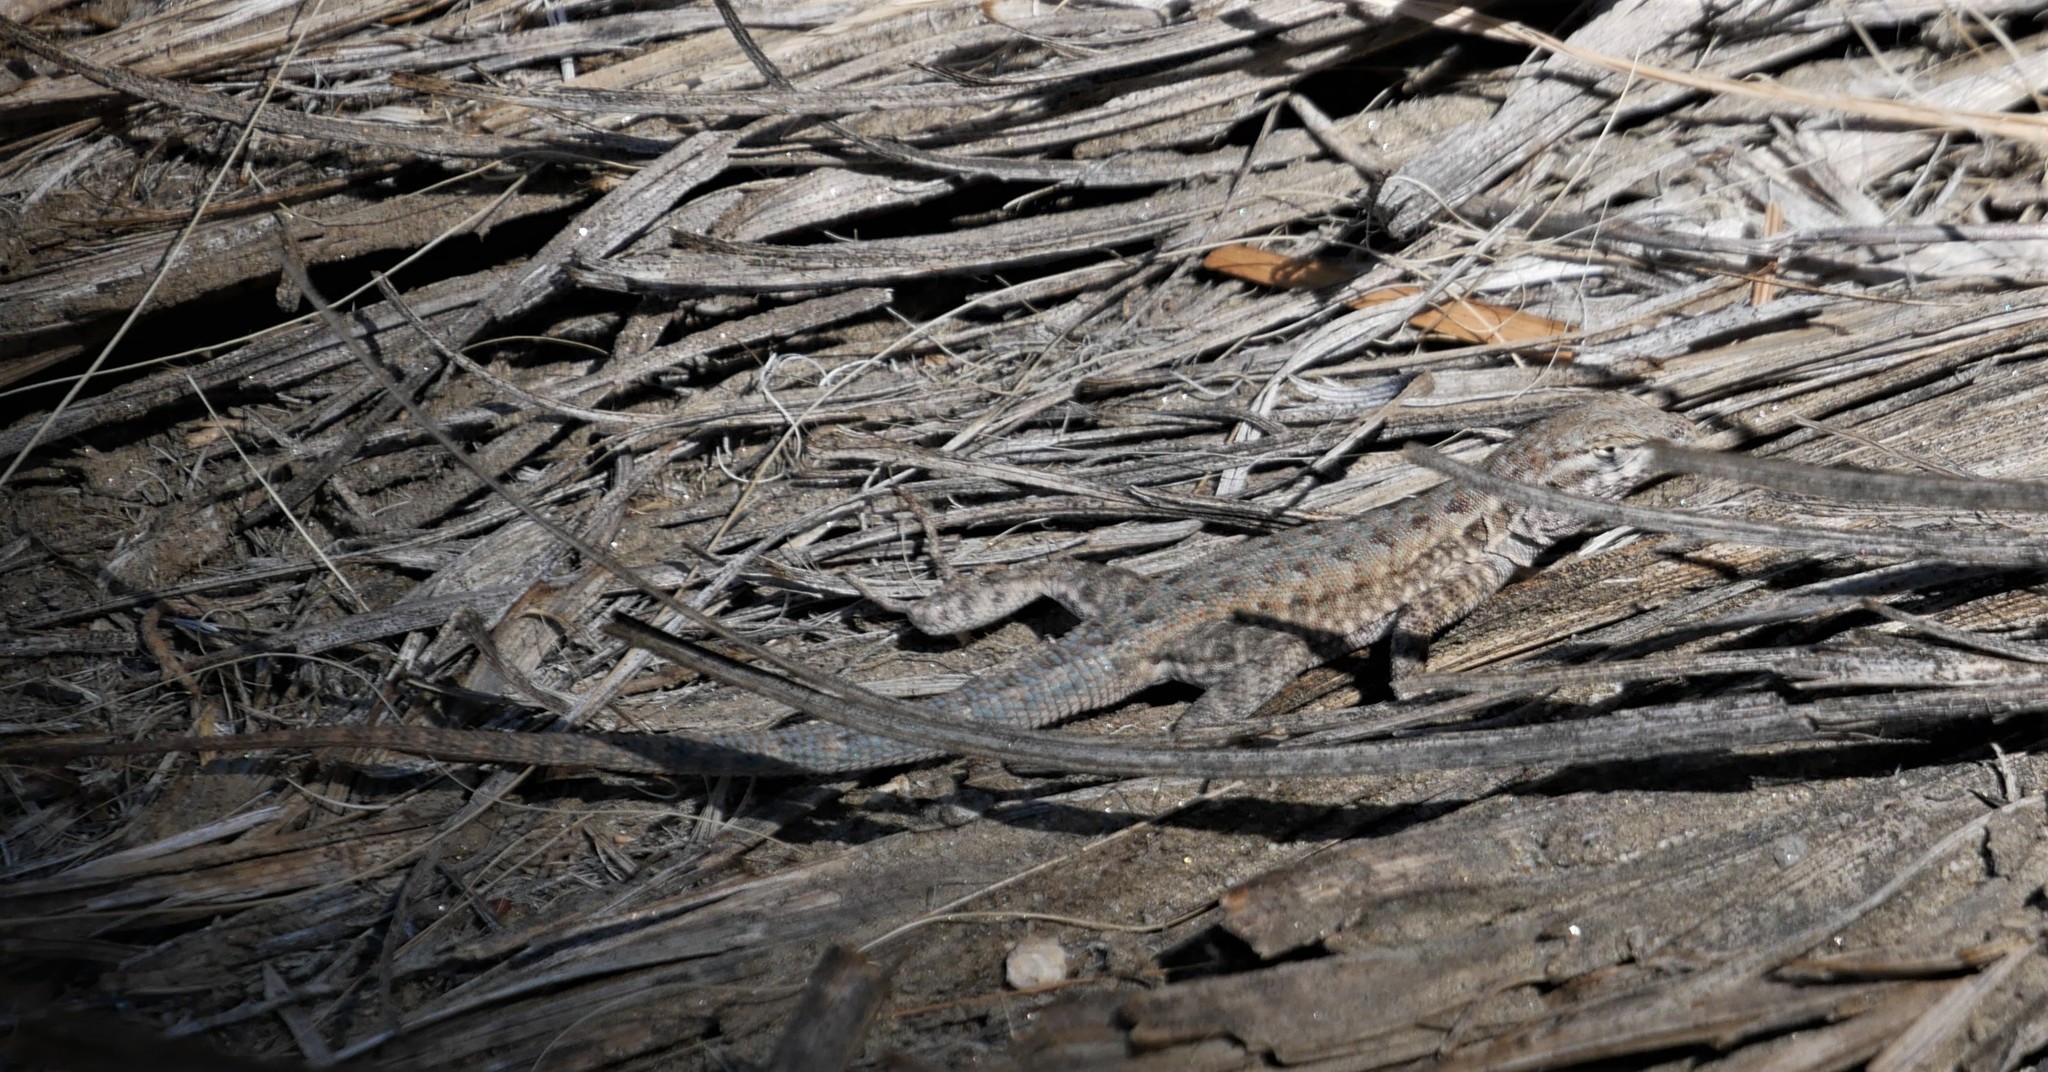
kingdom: Animalia
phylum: Chordata
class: Squamata
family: Phrynosomatidae
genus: Uta
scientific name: Uta stansburiana
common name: Side-blotched lizard
